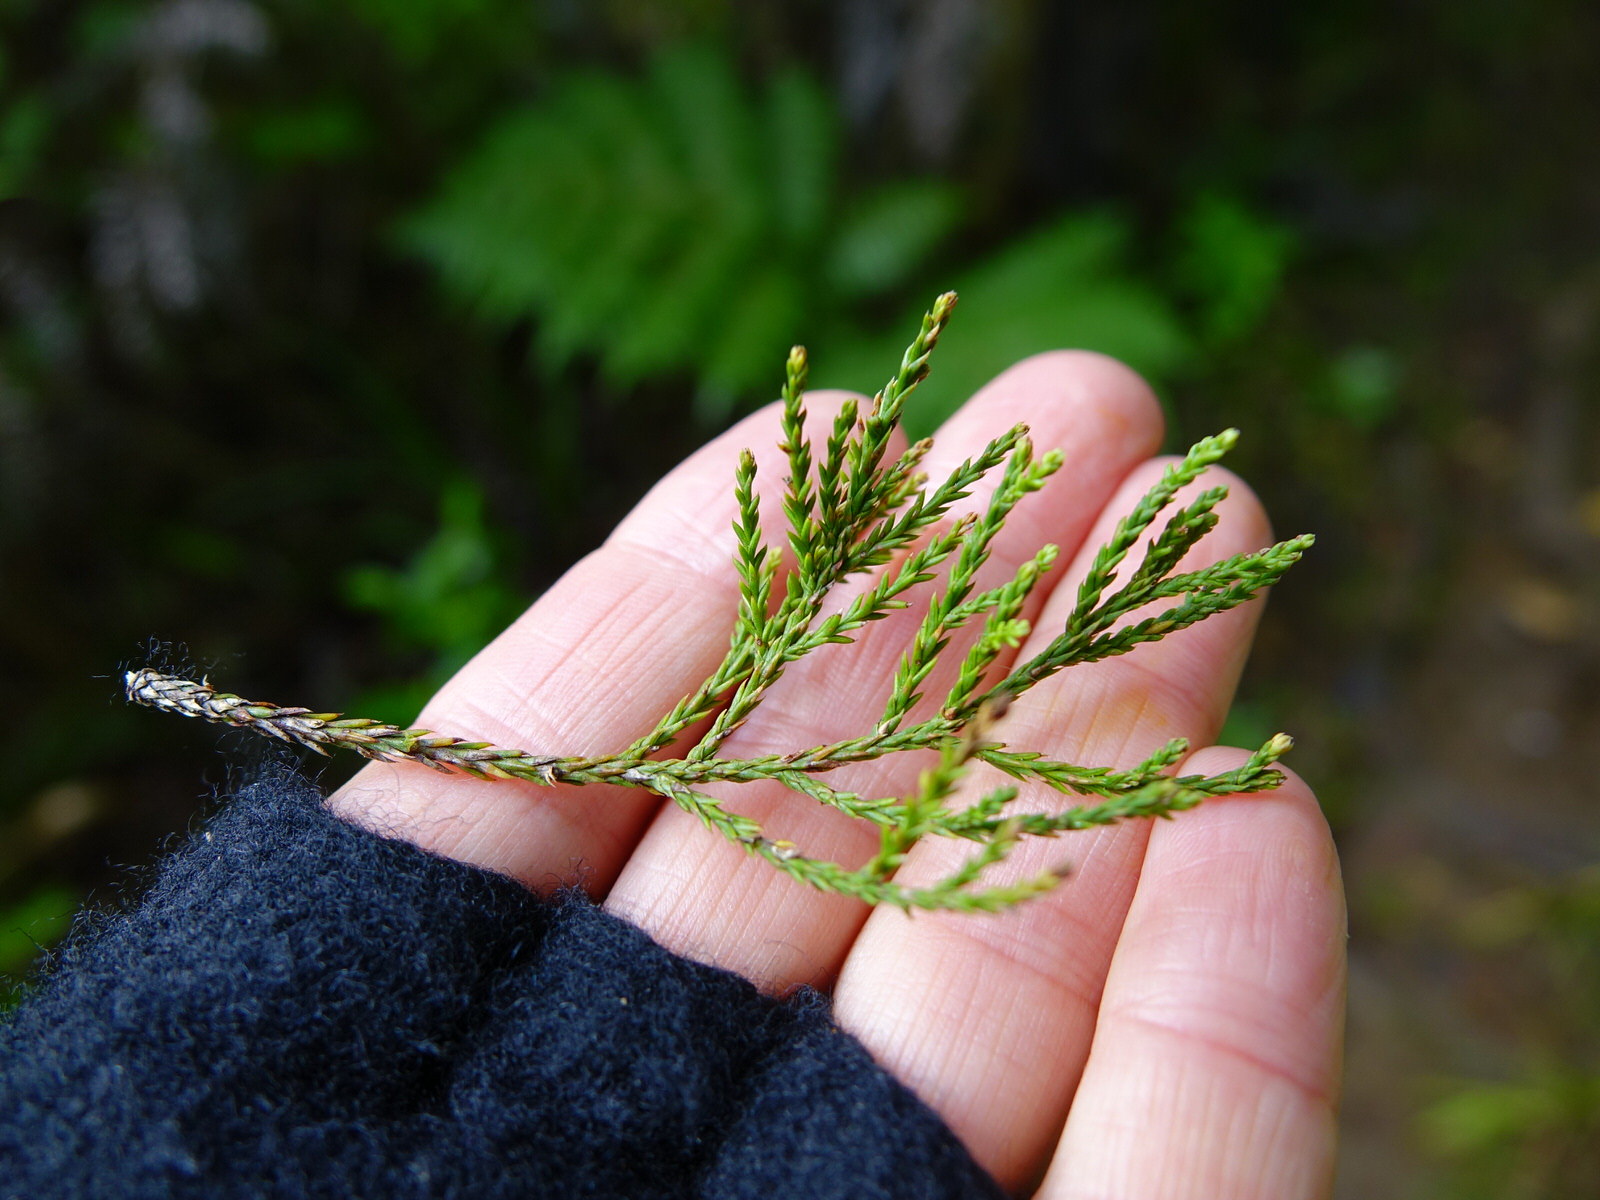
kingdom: Plantae
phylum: Tracheophyta
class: Pinopsida
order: Pinales
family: Podocarpaceae
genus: Dacrycarpus
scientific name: Dacrycarpus dacrydioides
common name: White pine
